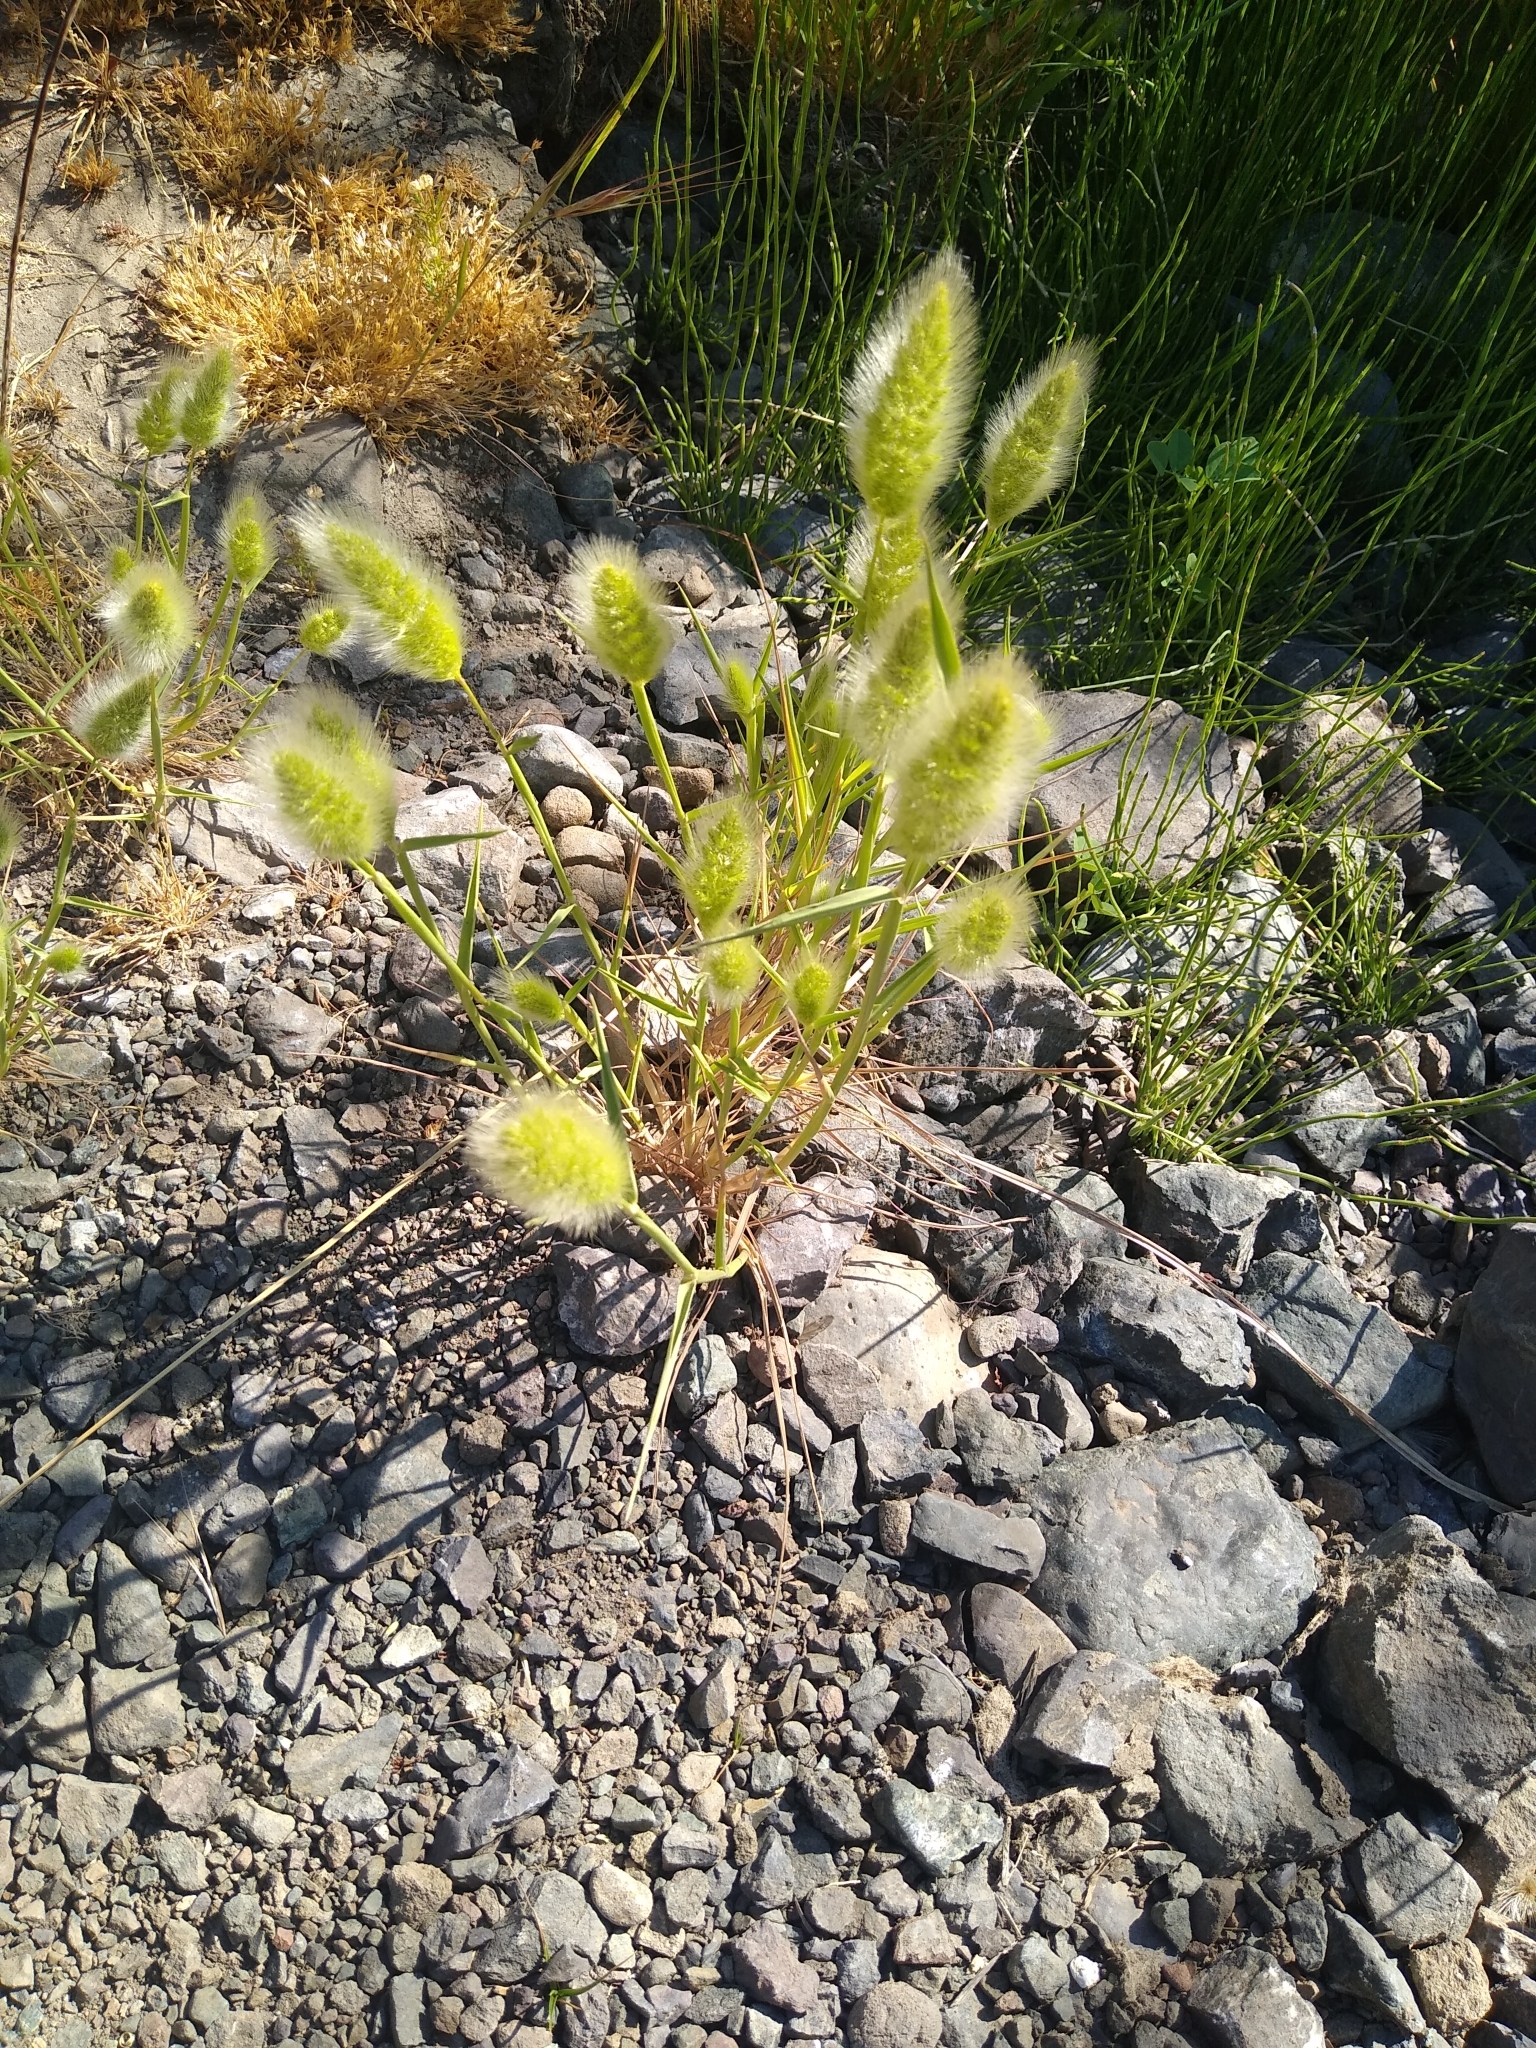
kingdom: Plantae
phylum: Tracheophyta
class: Liliopsida
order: Poales
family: Poaceae
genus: Polypogon
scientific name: Polypogon monspeliensis
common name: Annual rabbitsfoot grass
